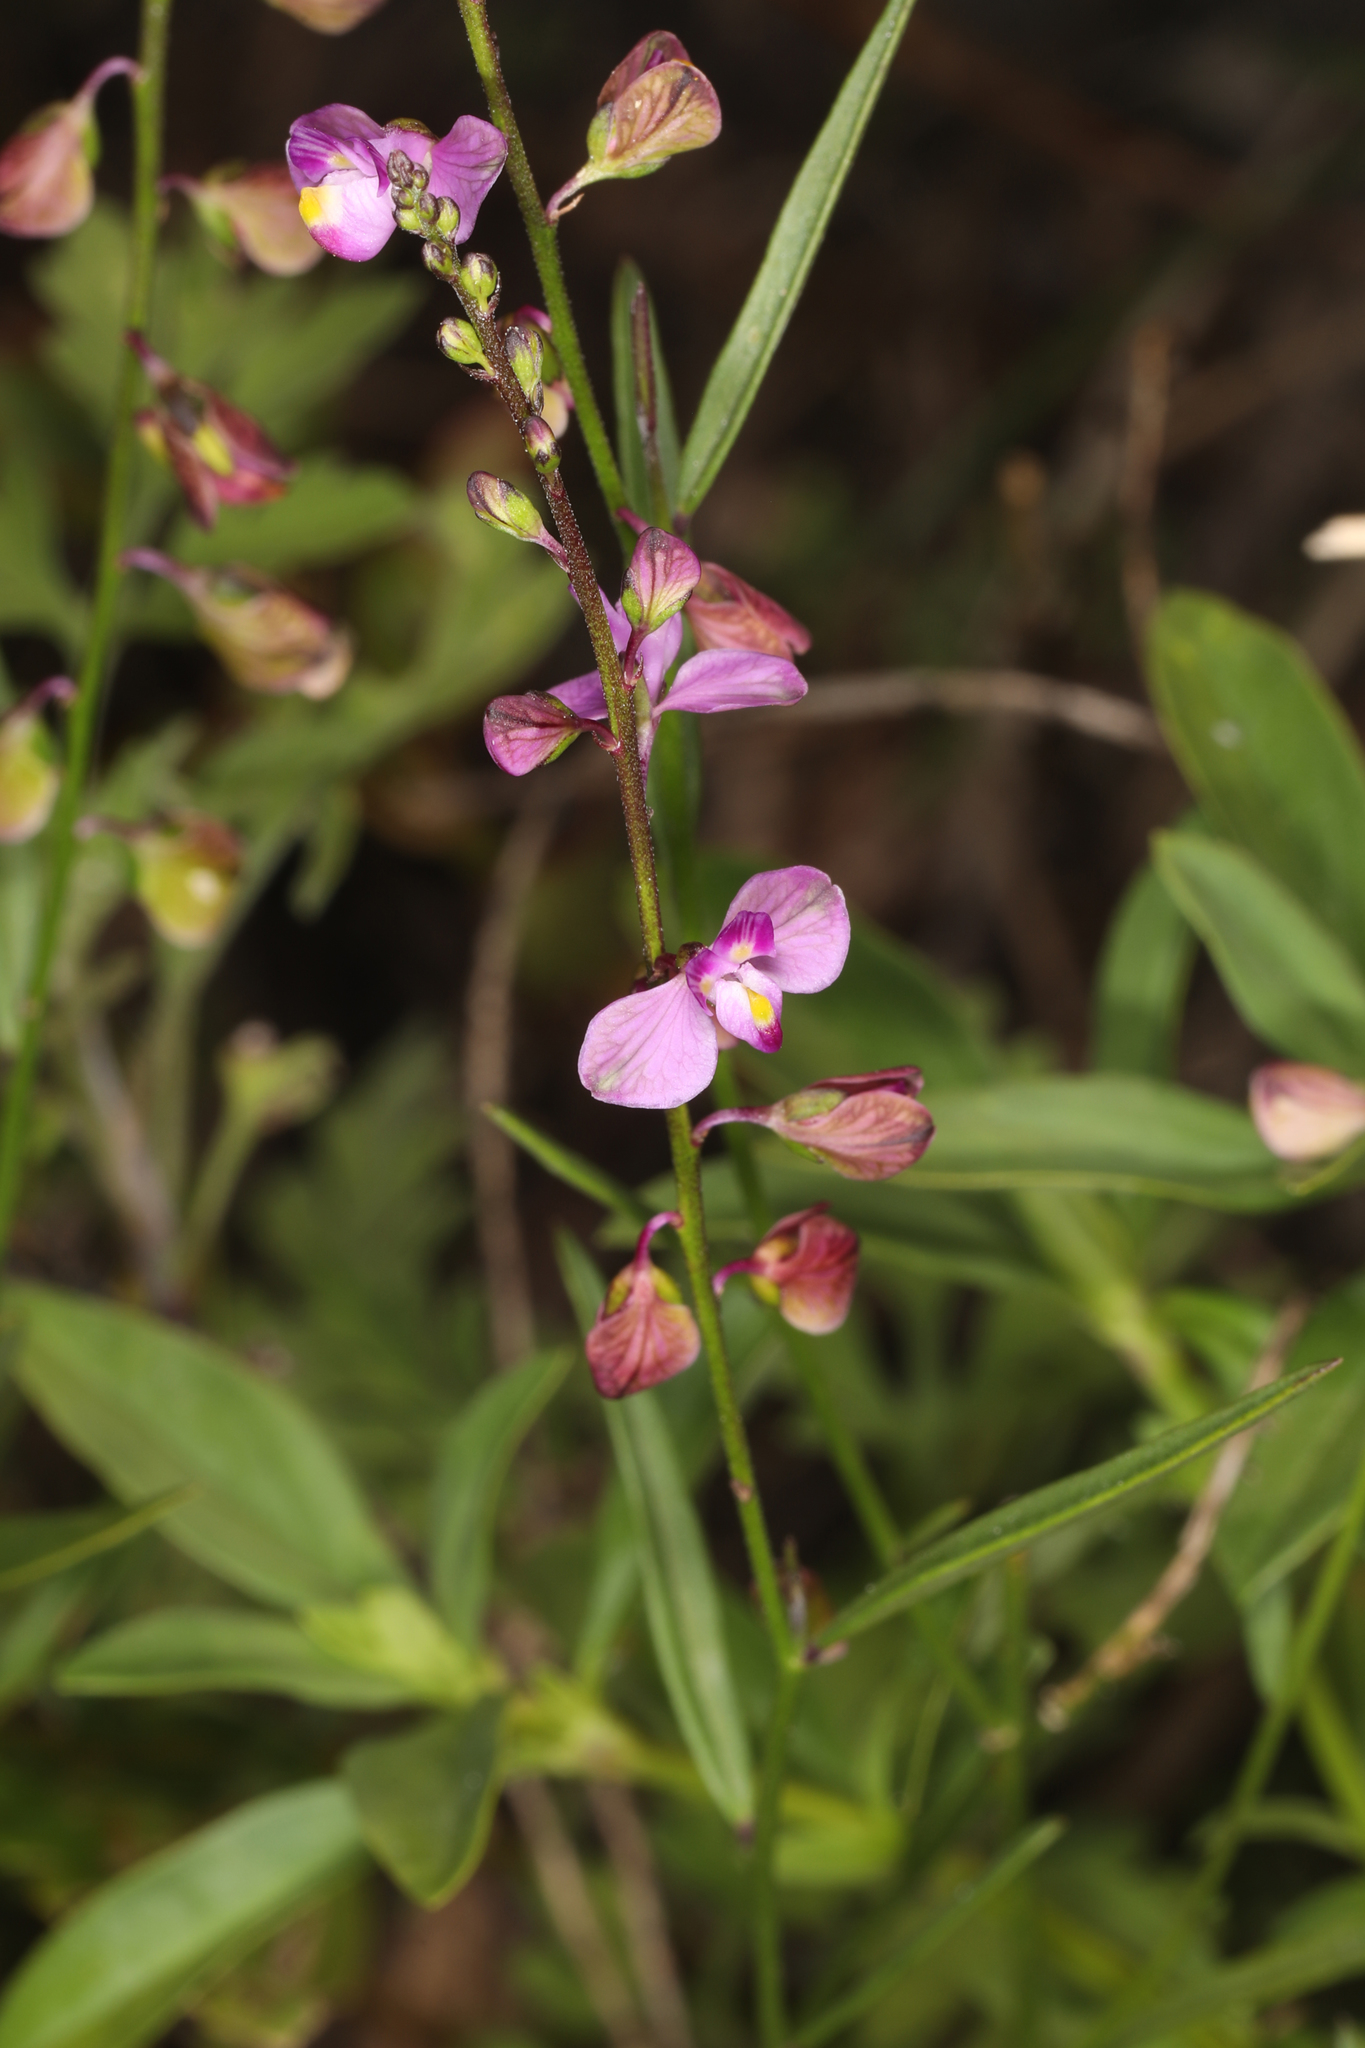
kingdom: Plantae
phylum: Tracheophyta
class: Magnoliopsida
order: Fabales
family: Polygalaceae
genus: Asemeia
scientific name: Asemeia grandiflora
